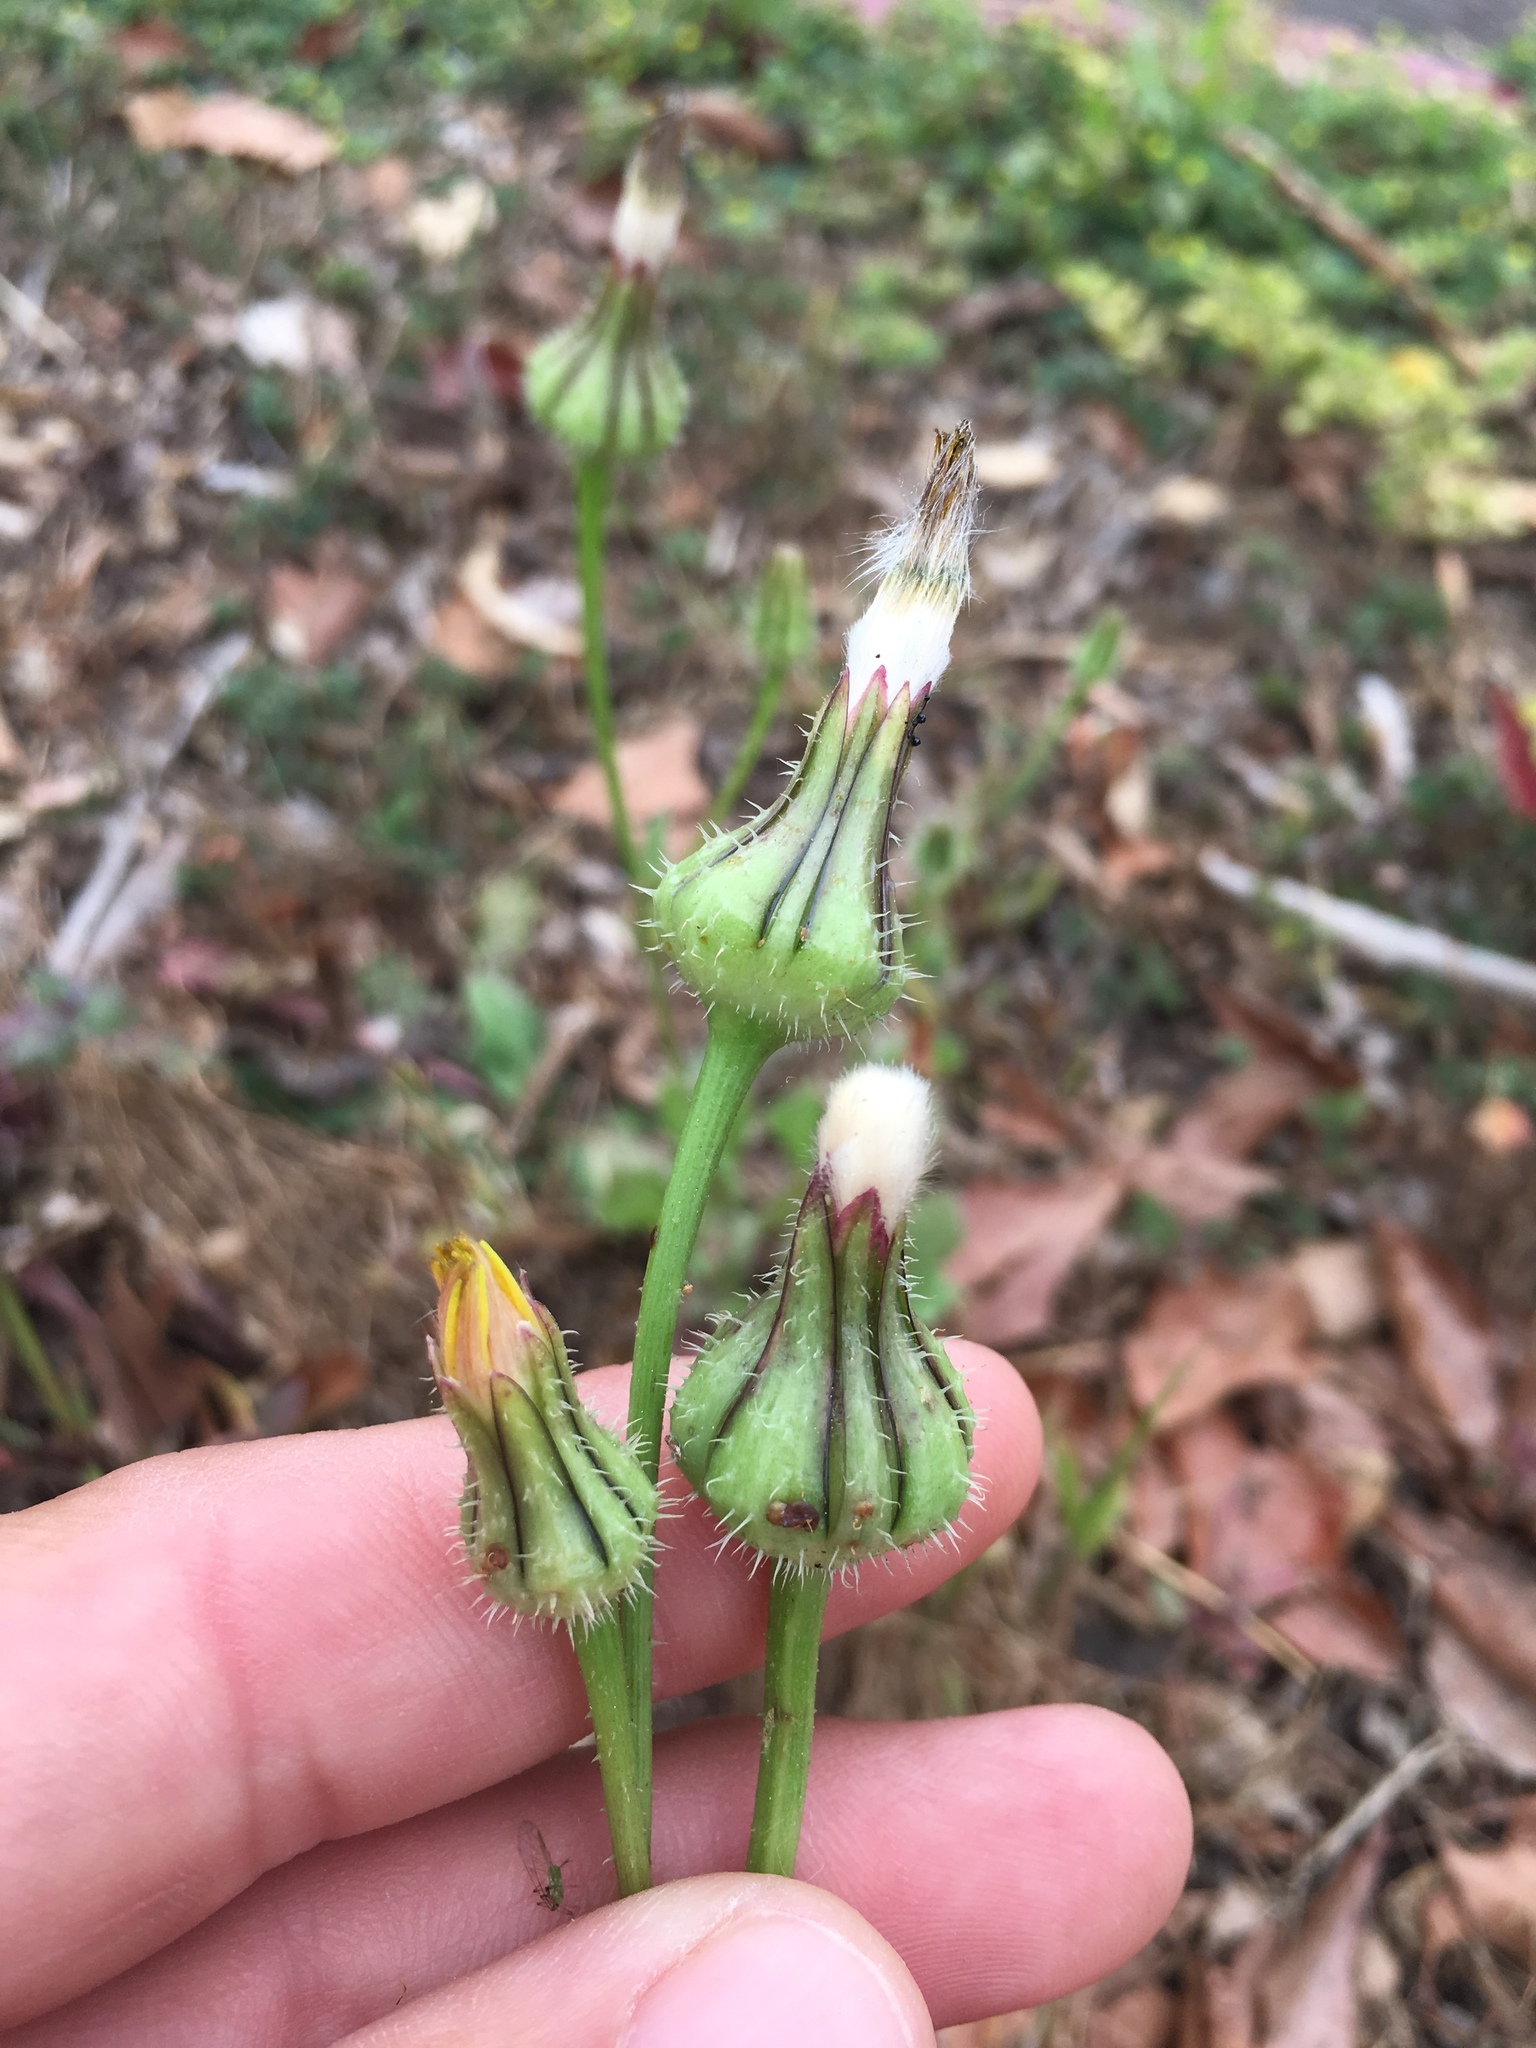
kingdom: Plantae
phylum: Tracheophyta
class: Magnoliopsida
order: Asterales
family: Asteraceae
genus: Urospermum
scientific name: Urospermum picroides
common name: False hawkbit
